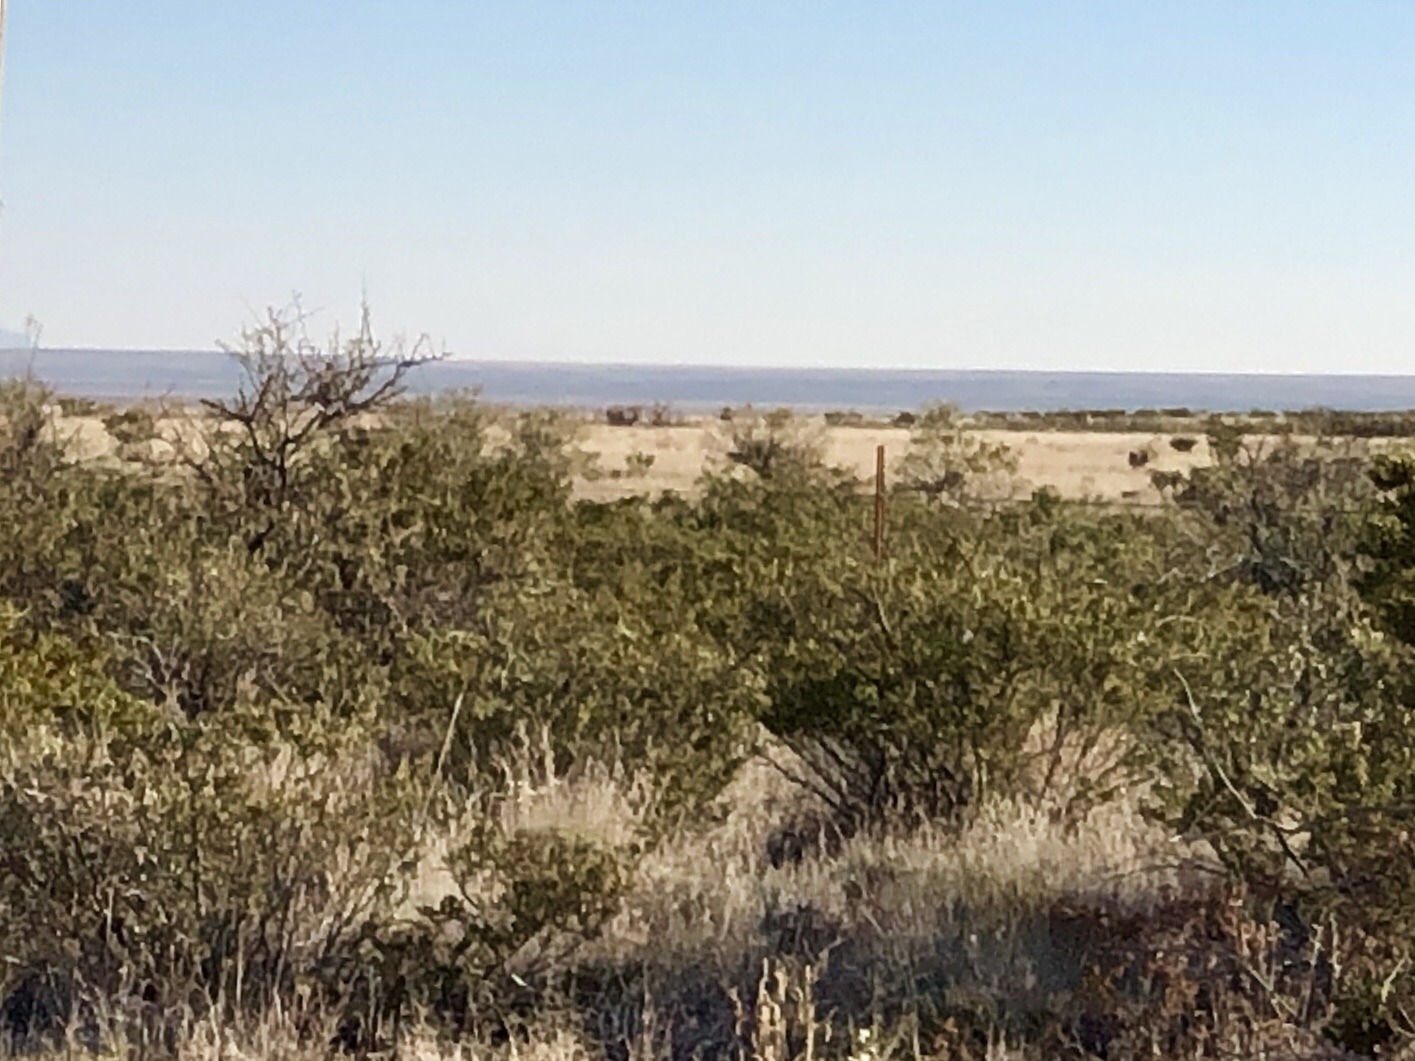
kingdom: Plantae
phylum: Tracheophyta
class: Magnoliopsida
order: Zygophyllales
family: Zygophyllaceae
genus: Larrea
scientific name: Larrea tridentata
